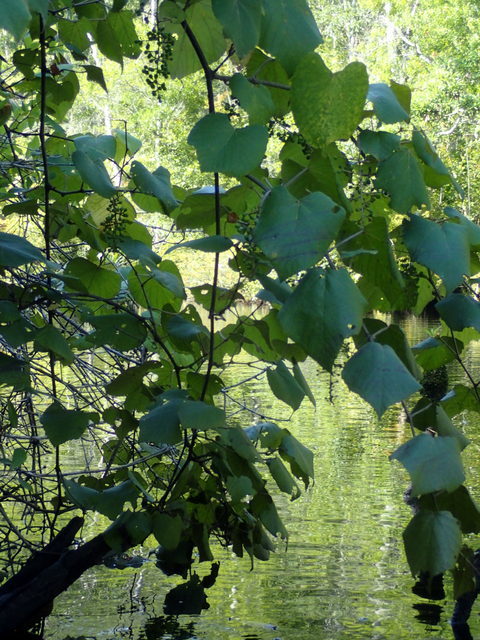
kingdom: Plantae
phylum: Tracheophyta
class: Magnoliopsida
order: Vitales
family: Vitaceae
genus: Vitis
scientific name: Vitis cinerea
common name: Ashy grape
